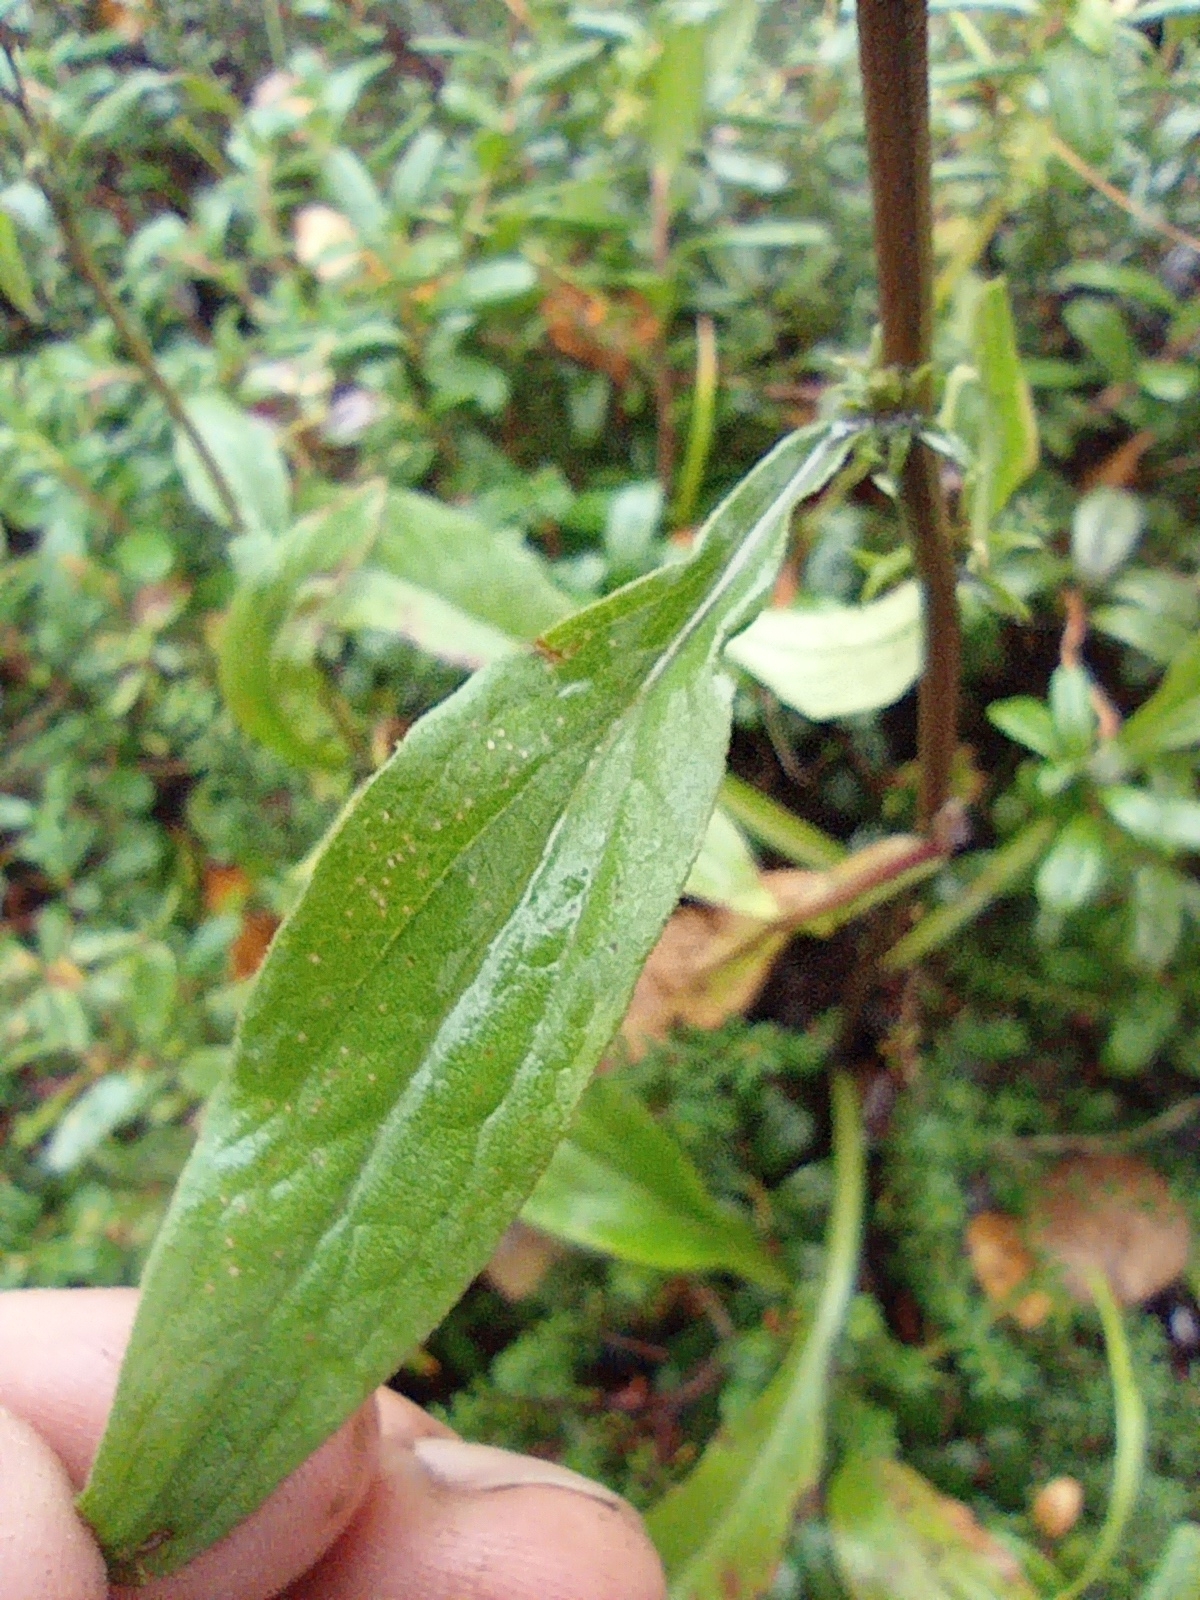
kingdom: Plantae
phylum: Tracheophyta
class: Magnoliopsida
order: Asterales
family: Asteraceae
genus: Solidago
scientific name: Solidago virgaurea
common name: Goldenrod
